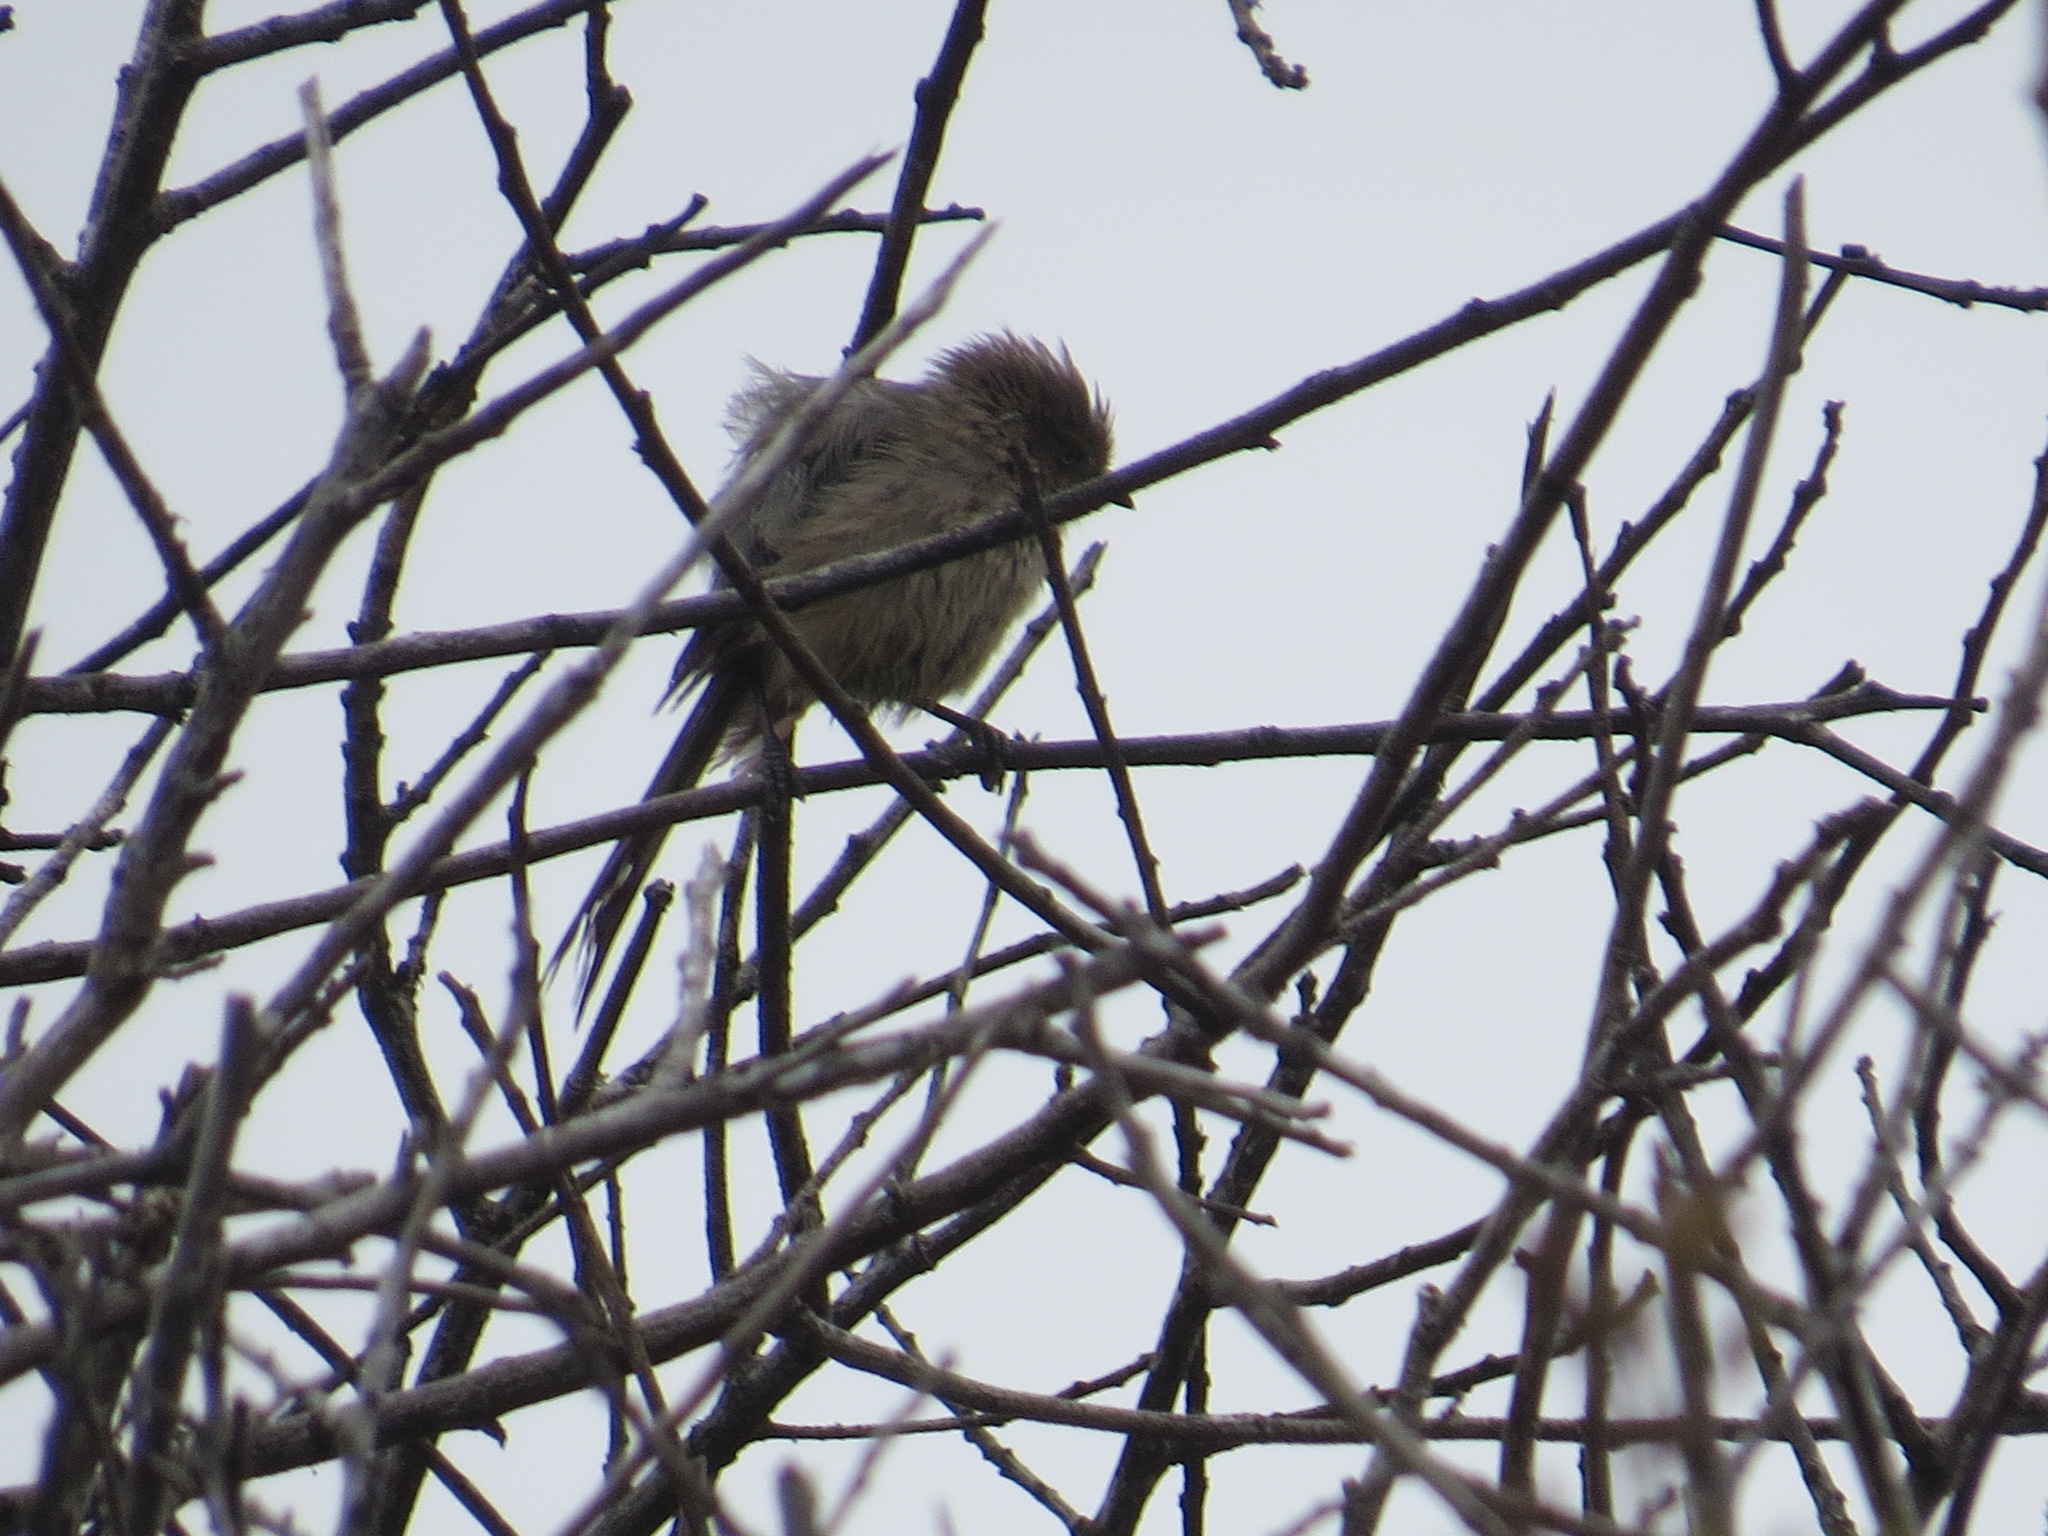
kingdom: Animalia
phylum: Chordata
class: Aves
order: Passeriformes
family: Aegithalidae
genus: Psaltriparus
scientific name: Psaltriparus minimus
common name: American bushtit
